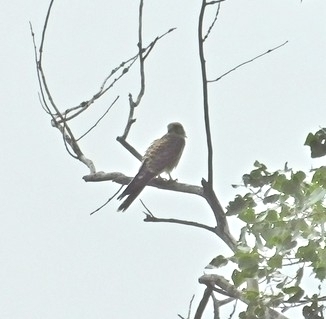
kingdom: Animalia
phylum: Chordata
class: Aves
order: Falconiformes
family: Falconidae
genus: Falco
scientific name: Falco tinnunculus
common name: Common kestrel
